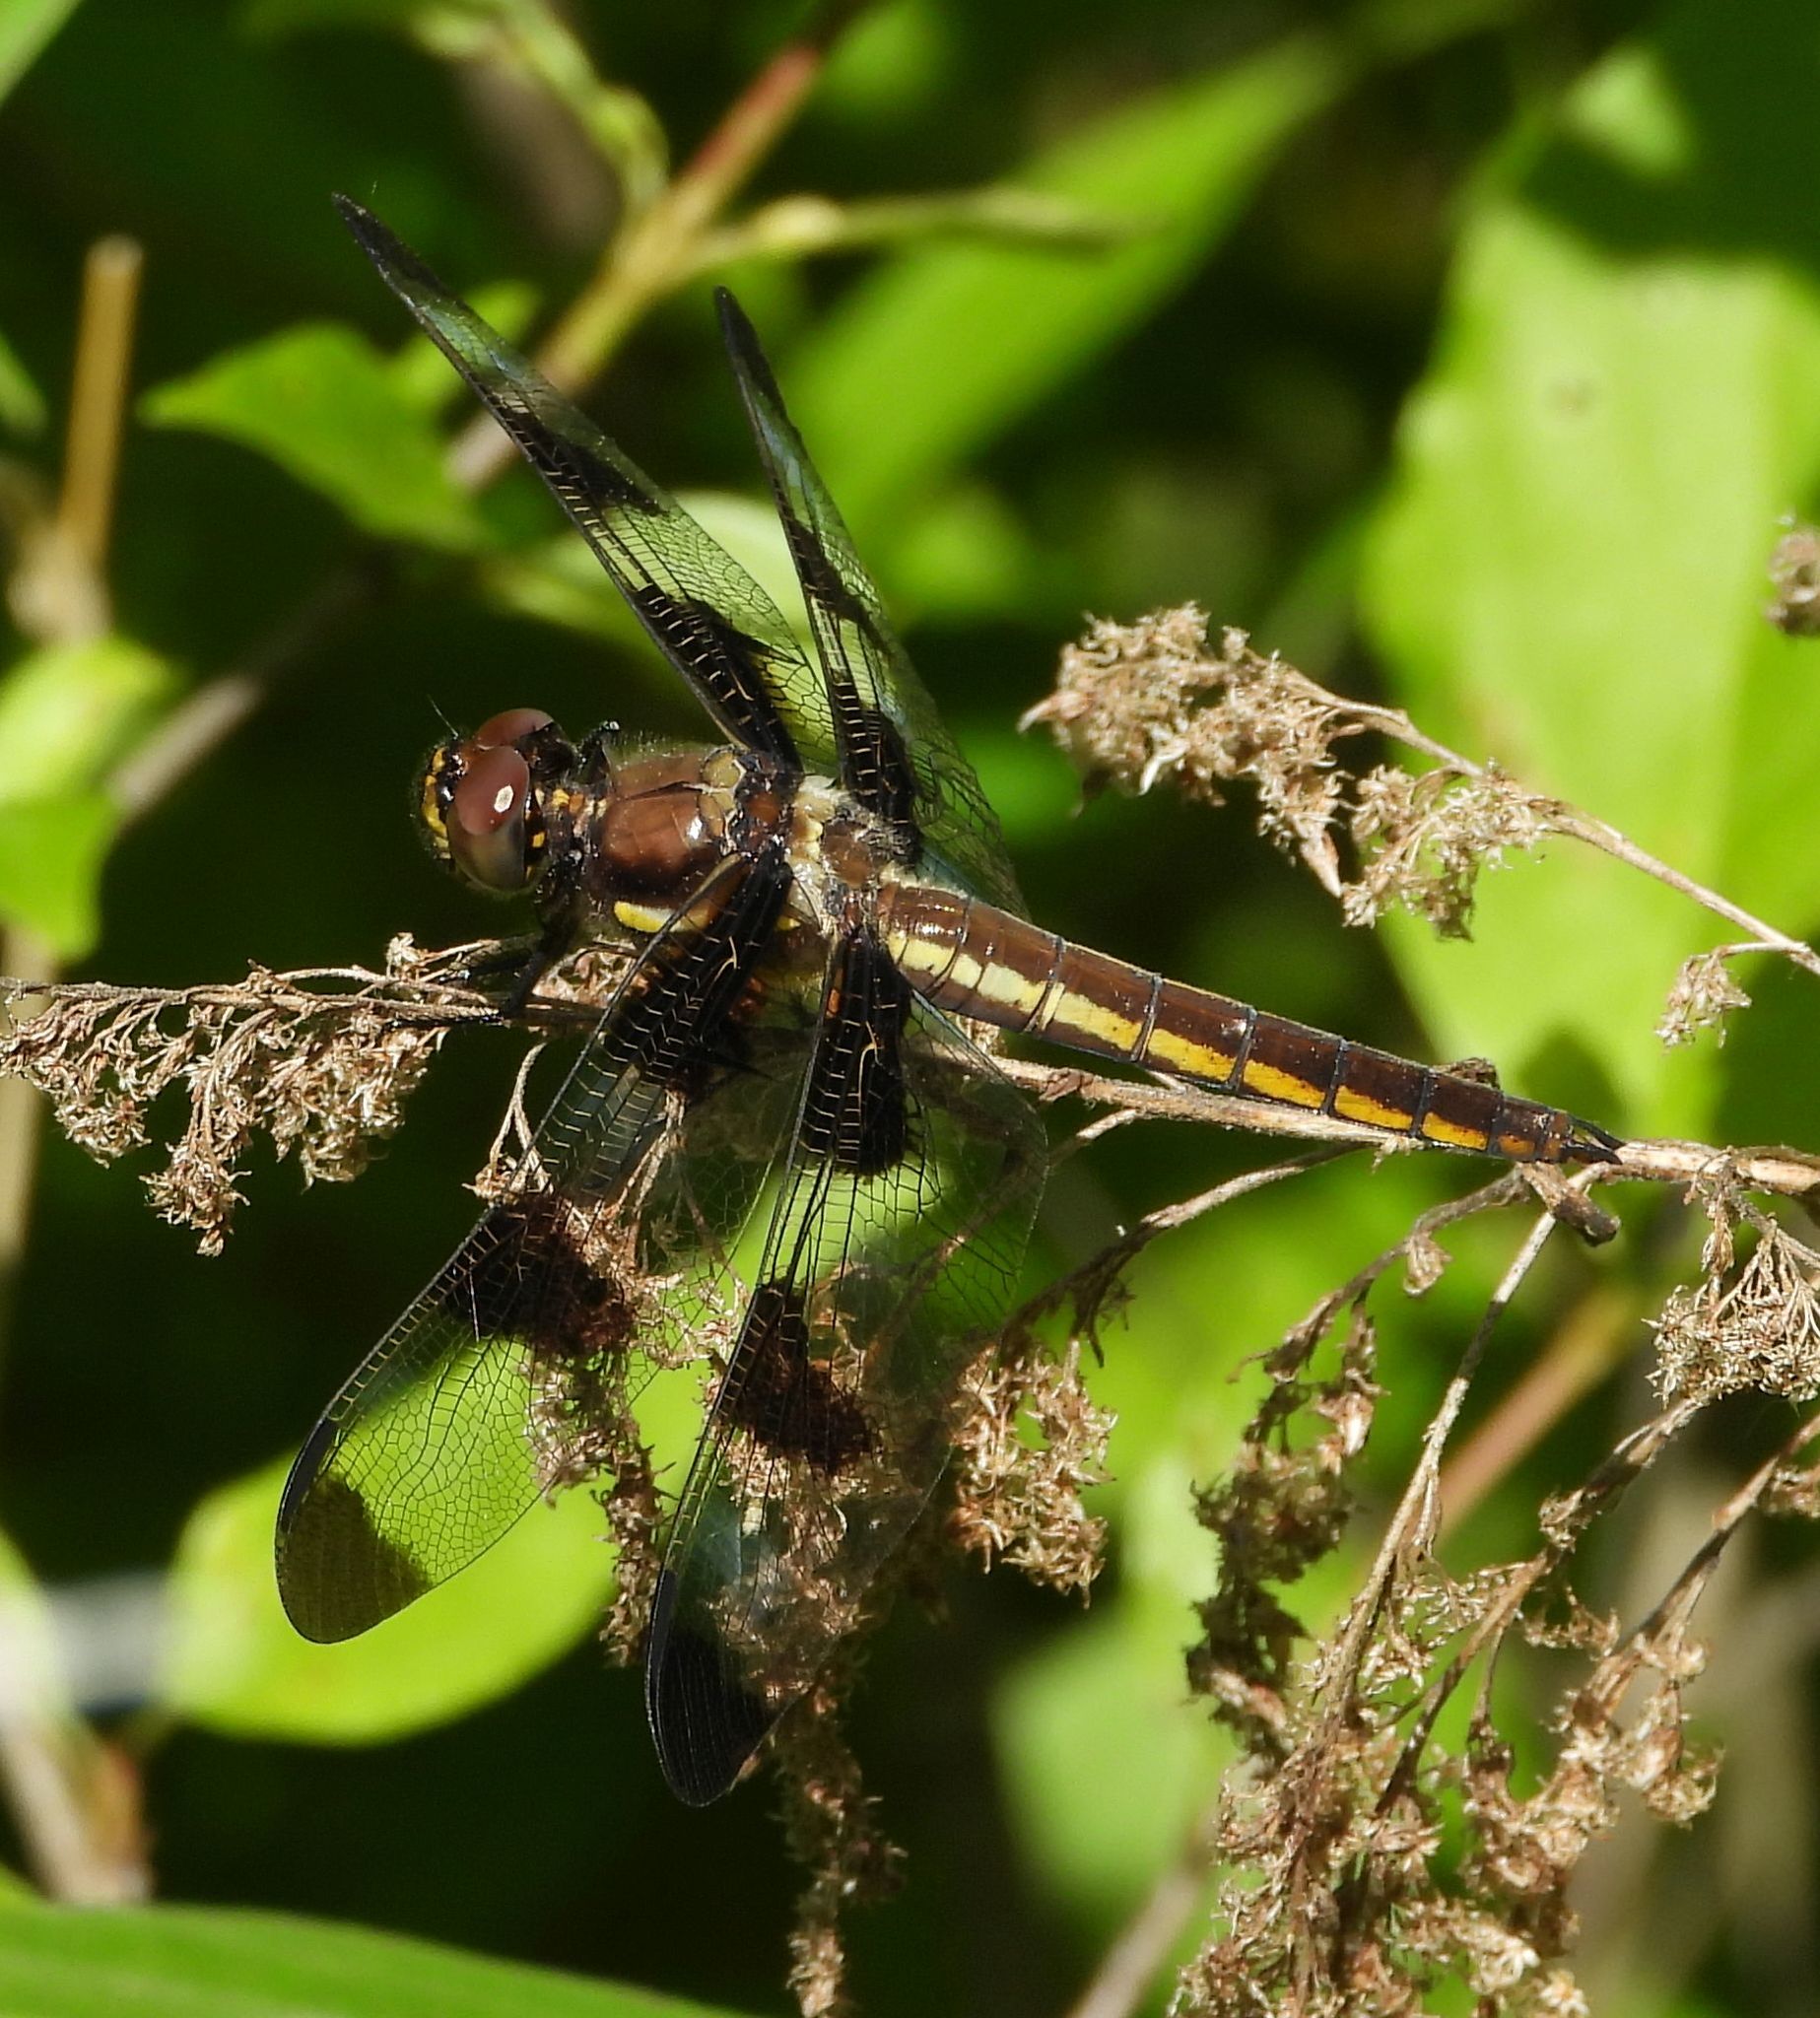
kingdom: Animalia
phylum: Arthropoda
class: Insecta
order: Odonata
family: Libellulidae
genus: Libellula
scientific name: Libellula pulchella
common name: Twelve-spotted skimmer
